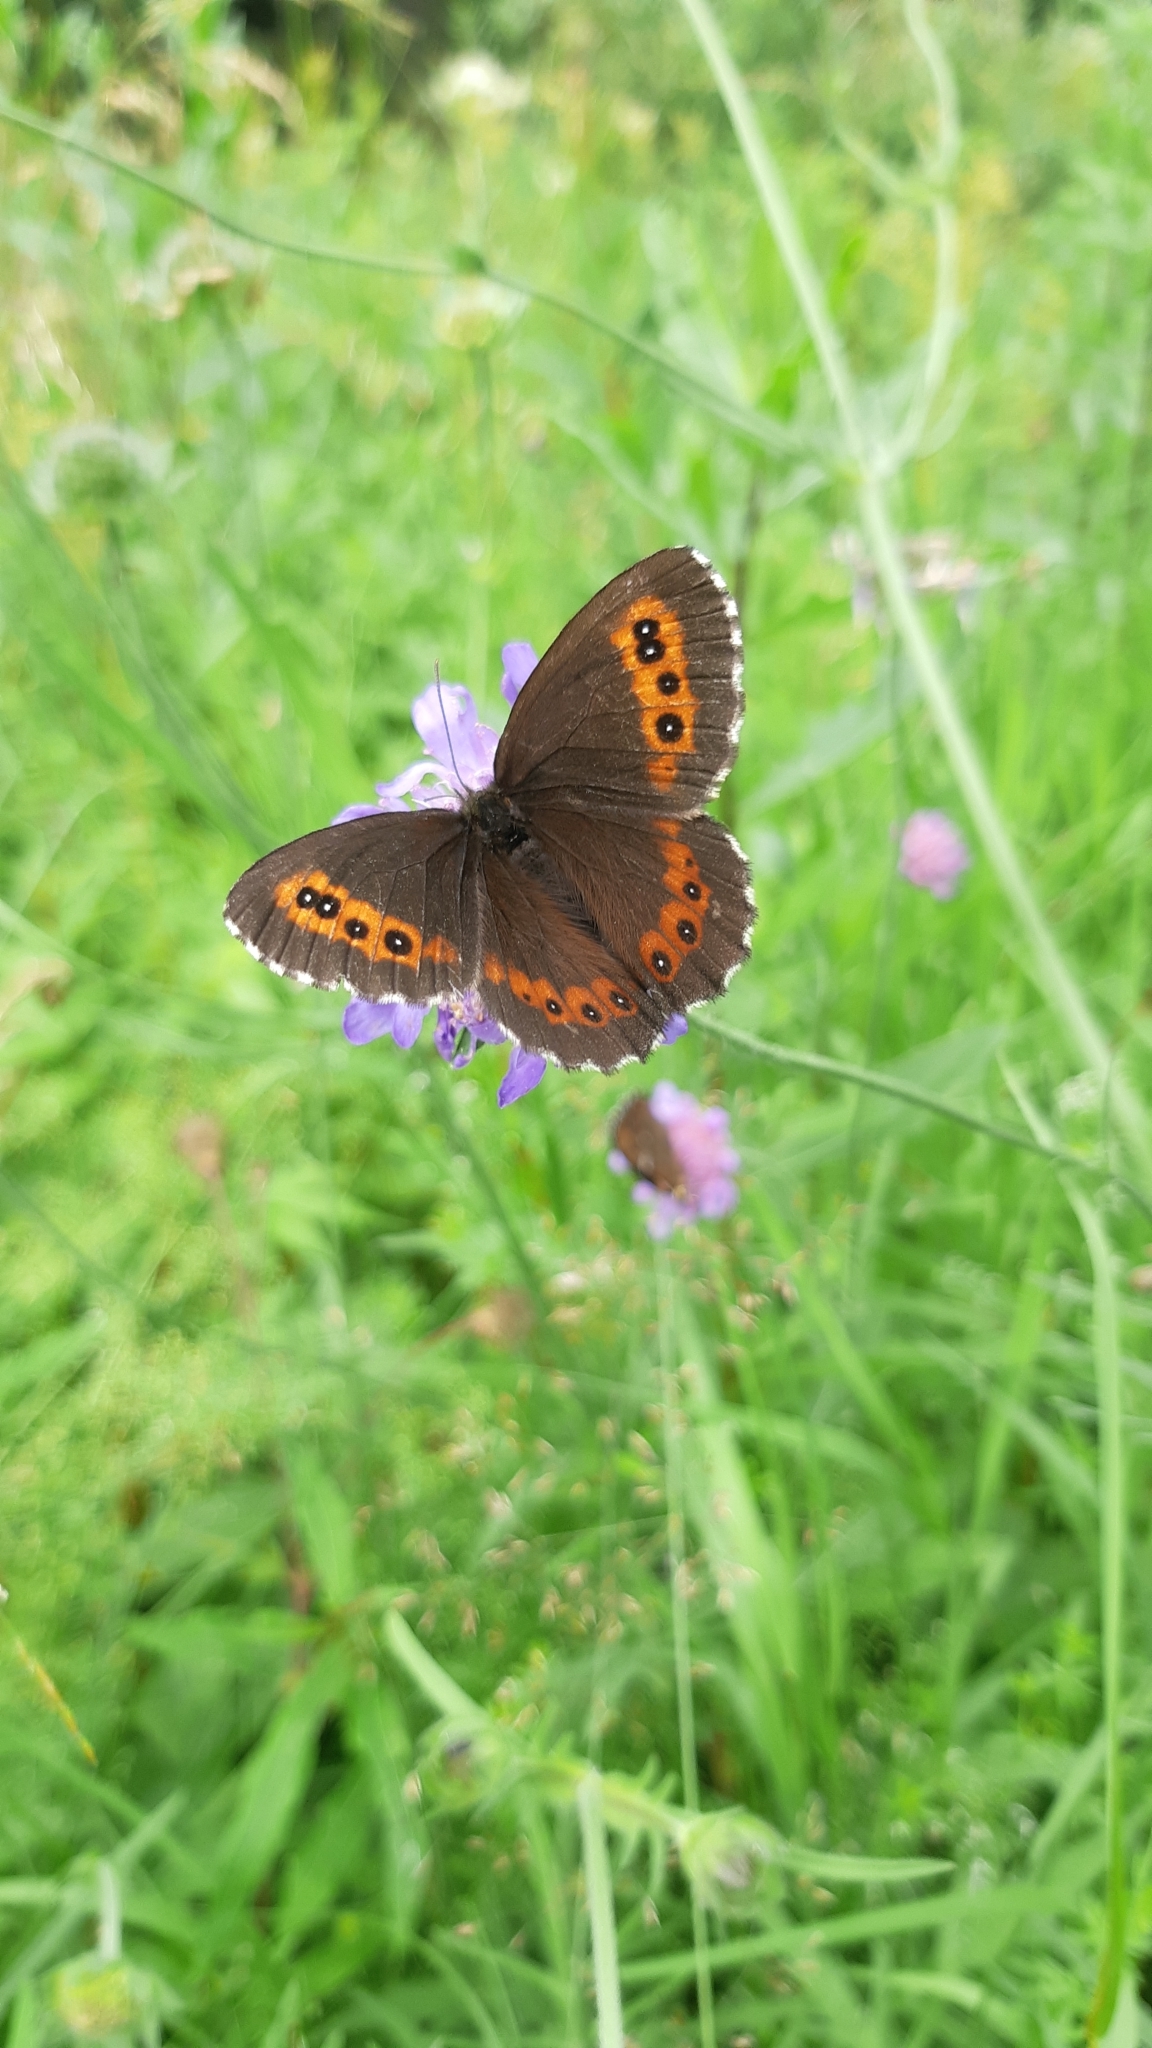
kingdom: Animalia
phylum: Arthropoda
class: Insecta
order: Lepidoptera
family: Nymphalidae
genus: Erebia
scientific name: Erebia ligea
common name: Arran brown
